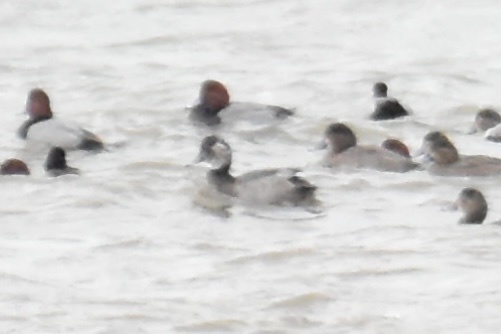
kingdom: Animalia
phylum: Chordata
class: Aves
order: Anseriformes
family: Anatidae
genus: Aythya
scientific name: Aythya americana
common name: Redhead
